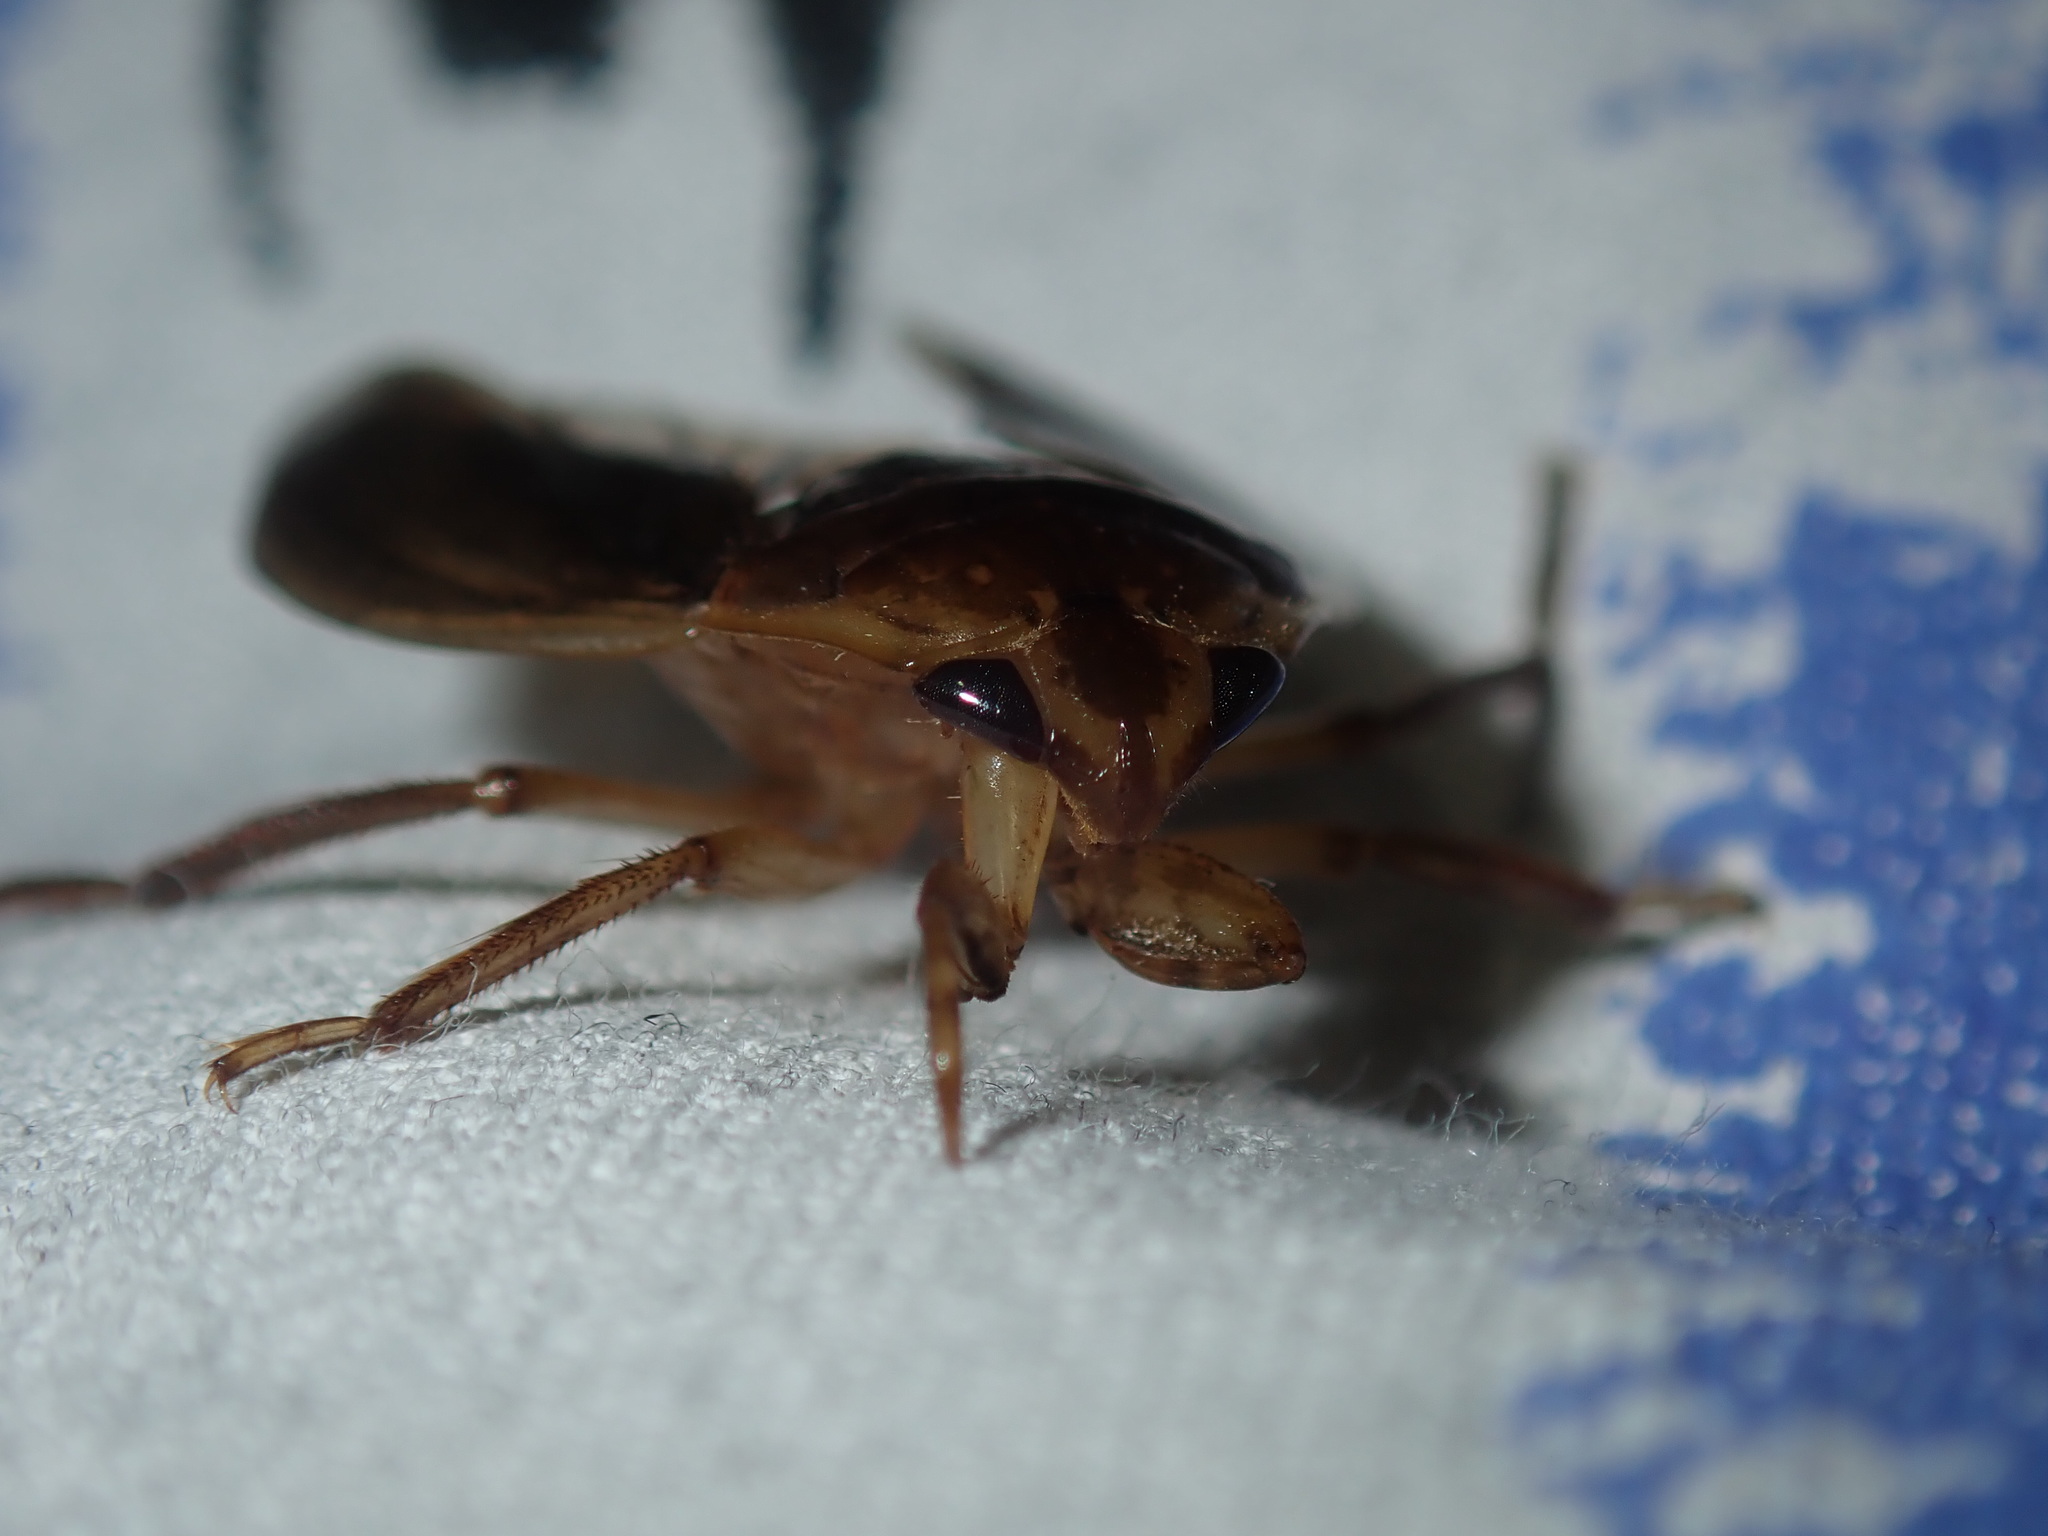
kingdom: Animalia
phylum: Arthropoda
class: Insecta
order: Hemiptera
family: Belostomatidae
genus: Diplonychus
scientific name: Diplonychus eques
